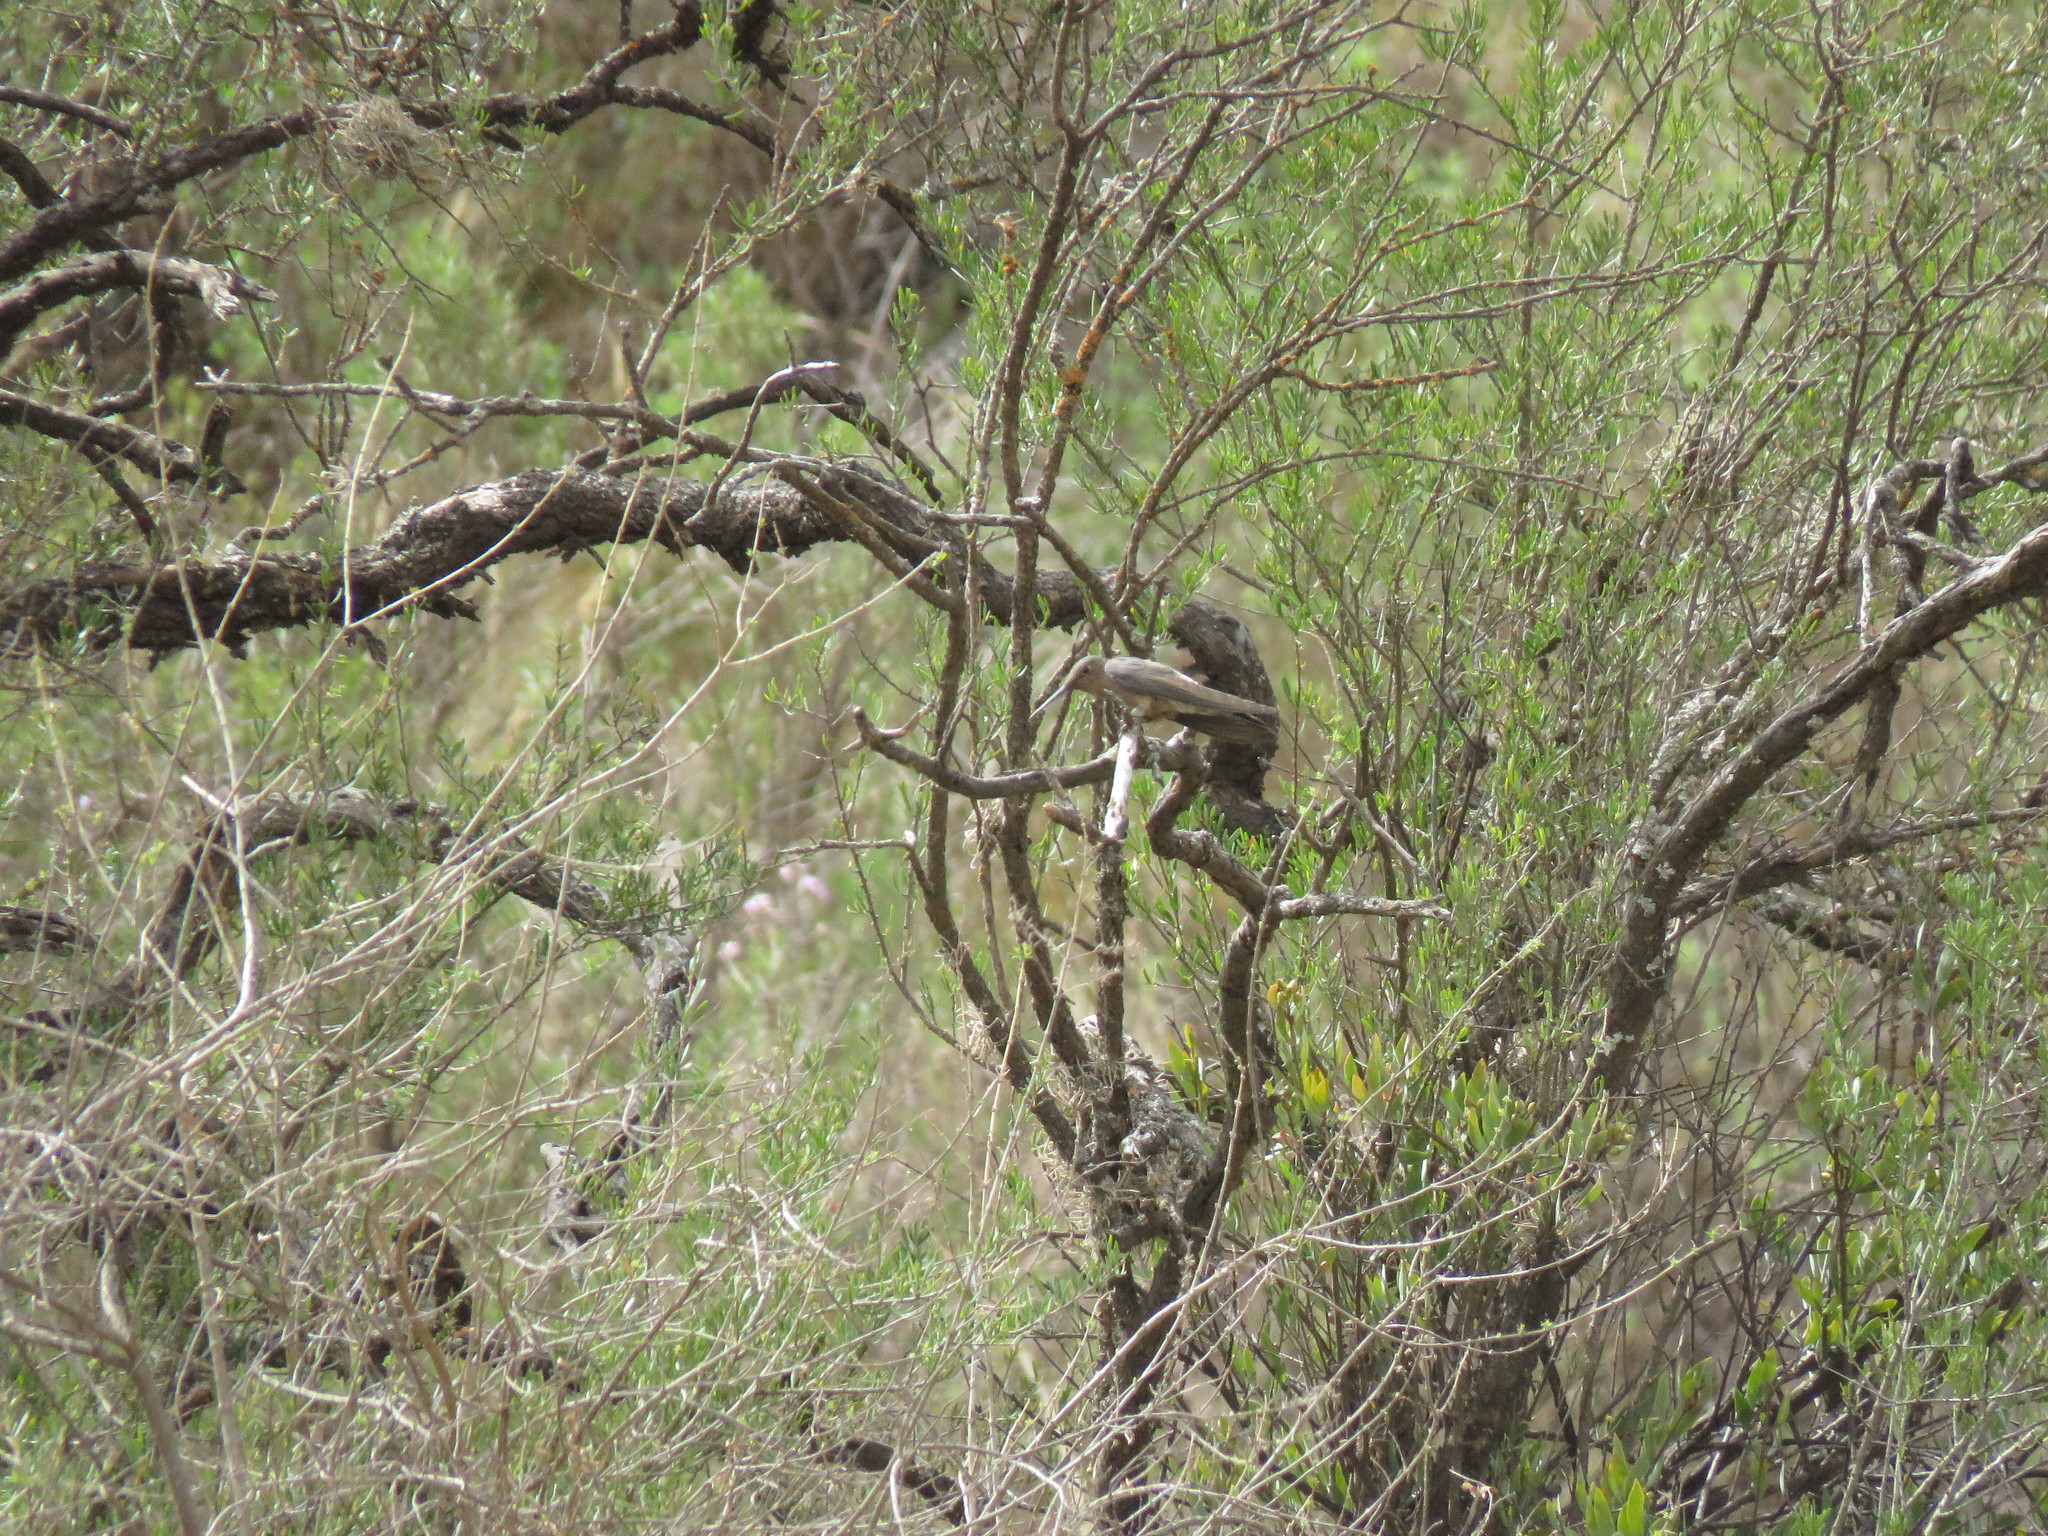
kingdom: Animalia
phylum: Chordata
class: Aves
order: Apodiformes
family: Trochilidae
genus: Patagona
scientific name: Patagona gigas
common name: Giant hummingbird
